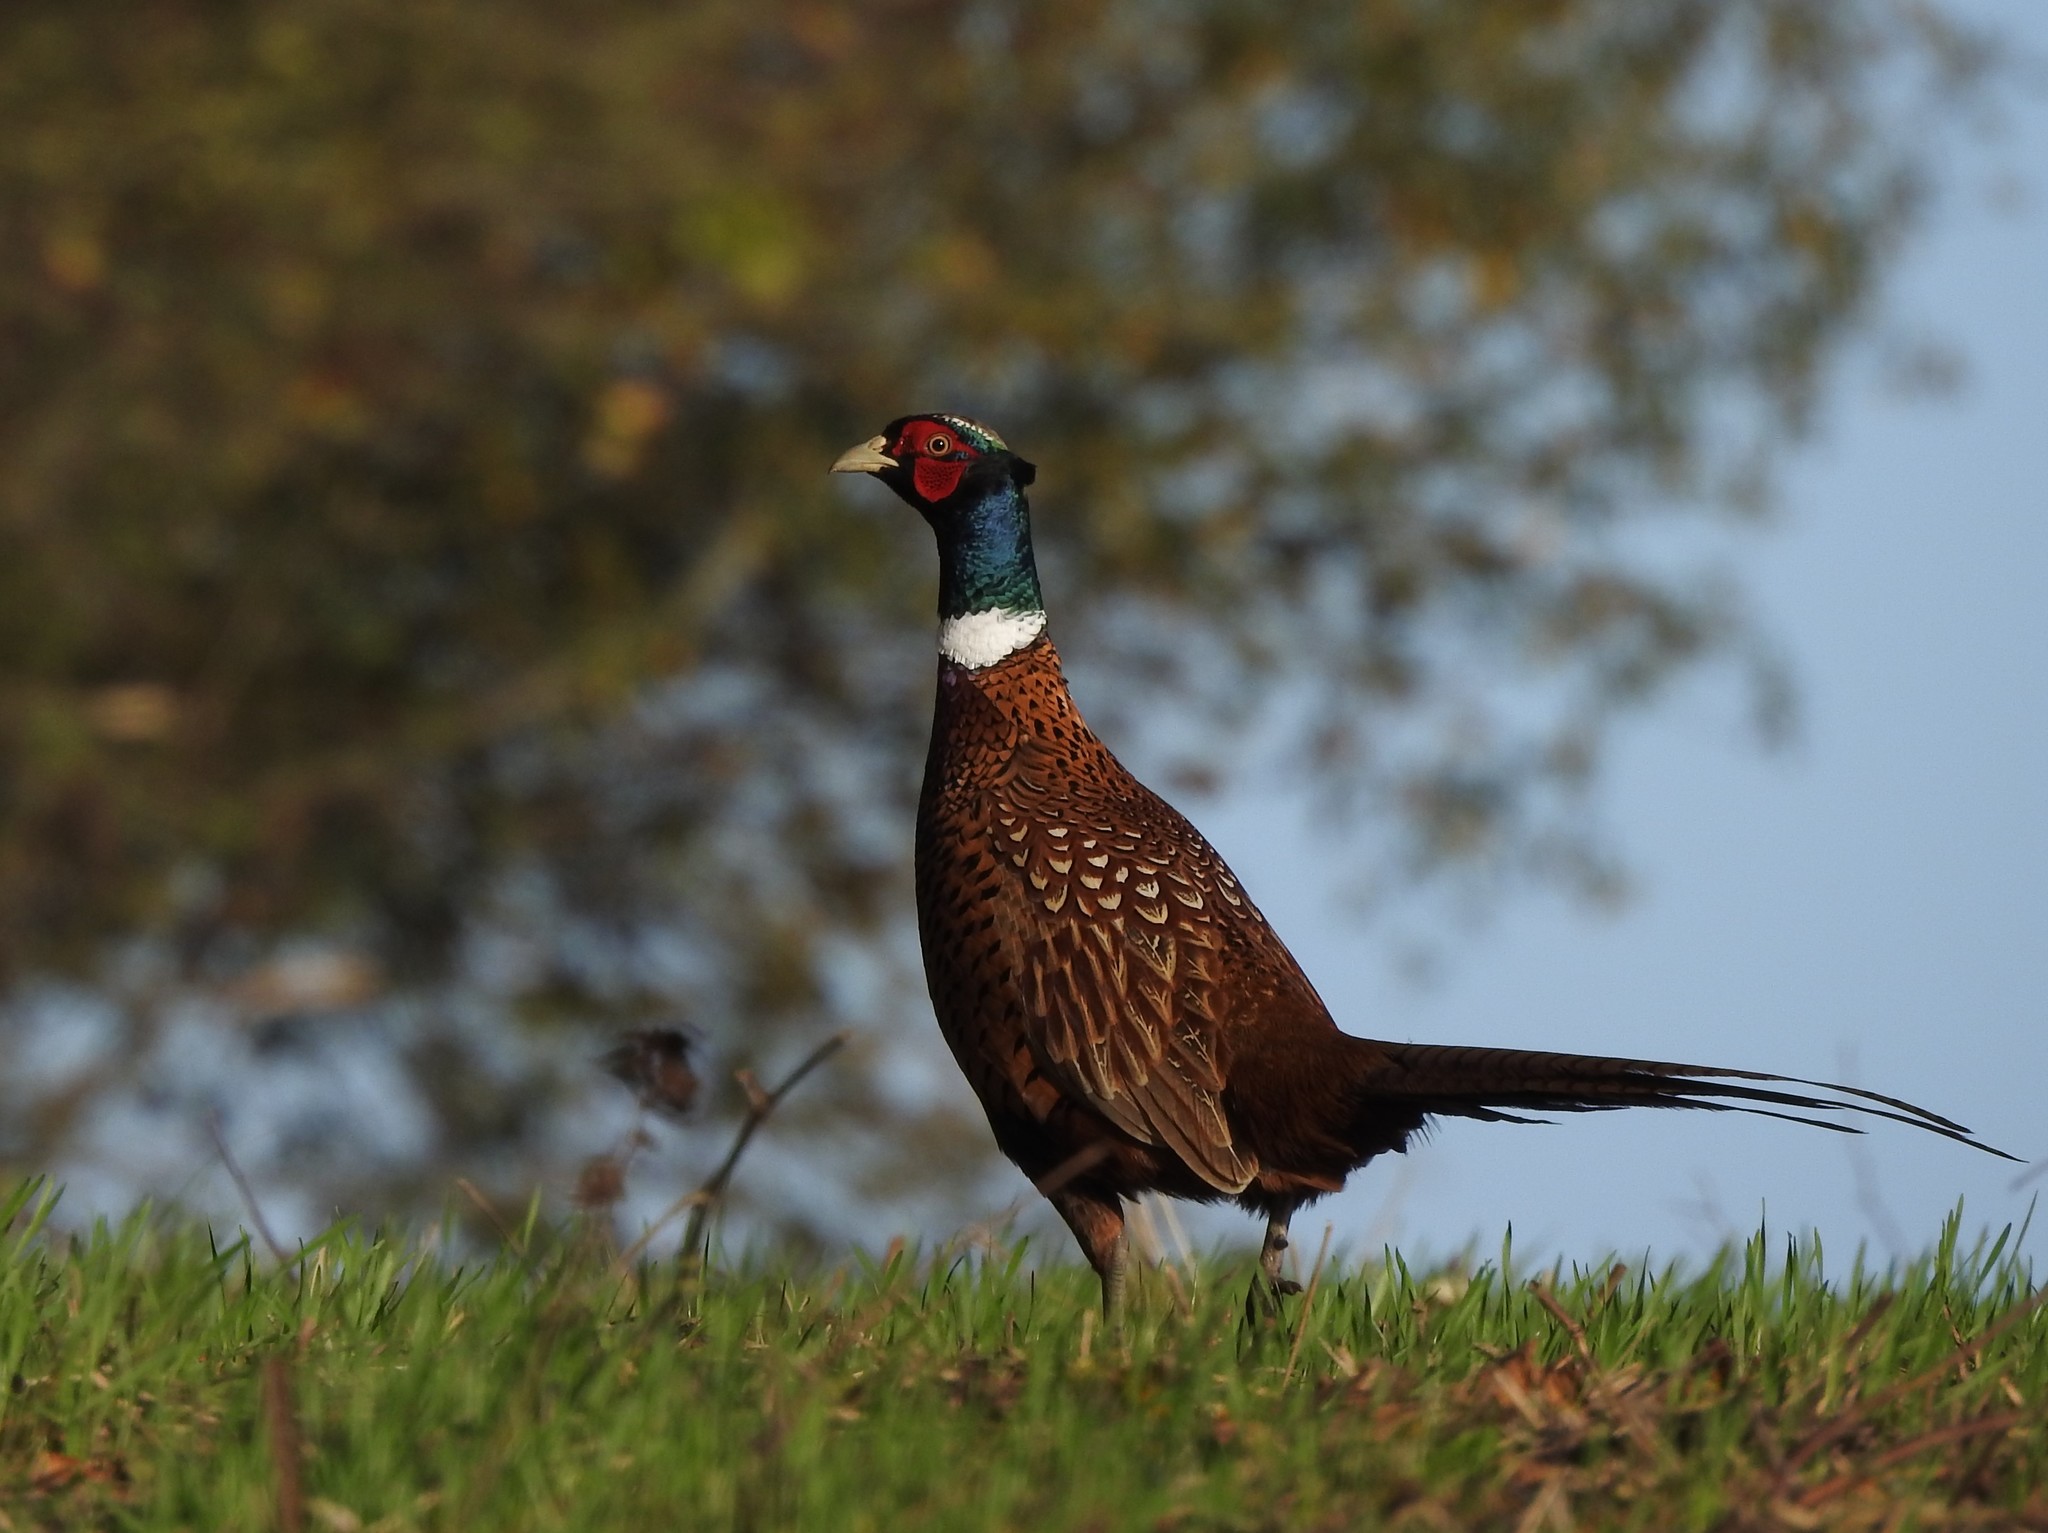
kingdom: Animalia
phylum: Chordata
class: Aves
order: Galliformes
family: Phasianidae
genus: Phasianus
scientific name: Phasianus colchicus
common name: Common pheasant
